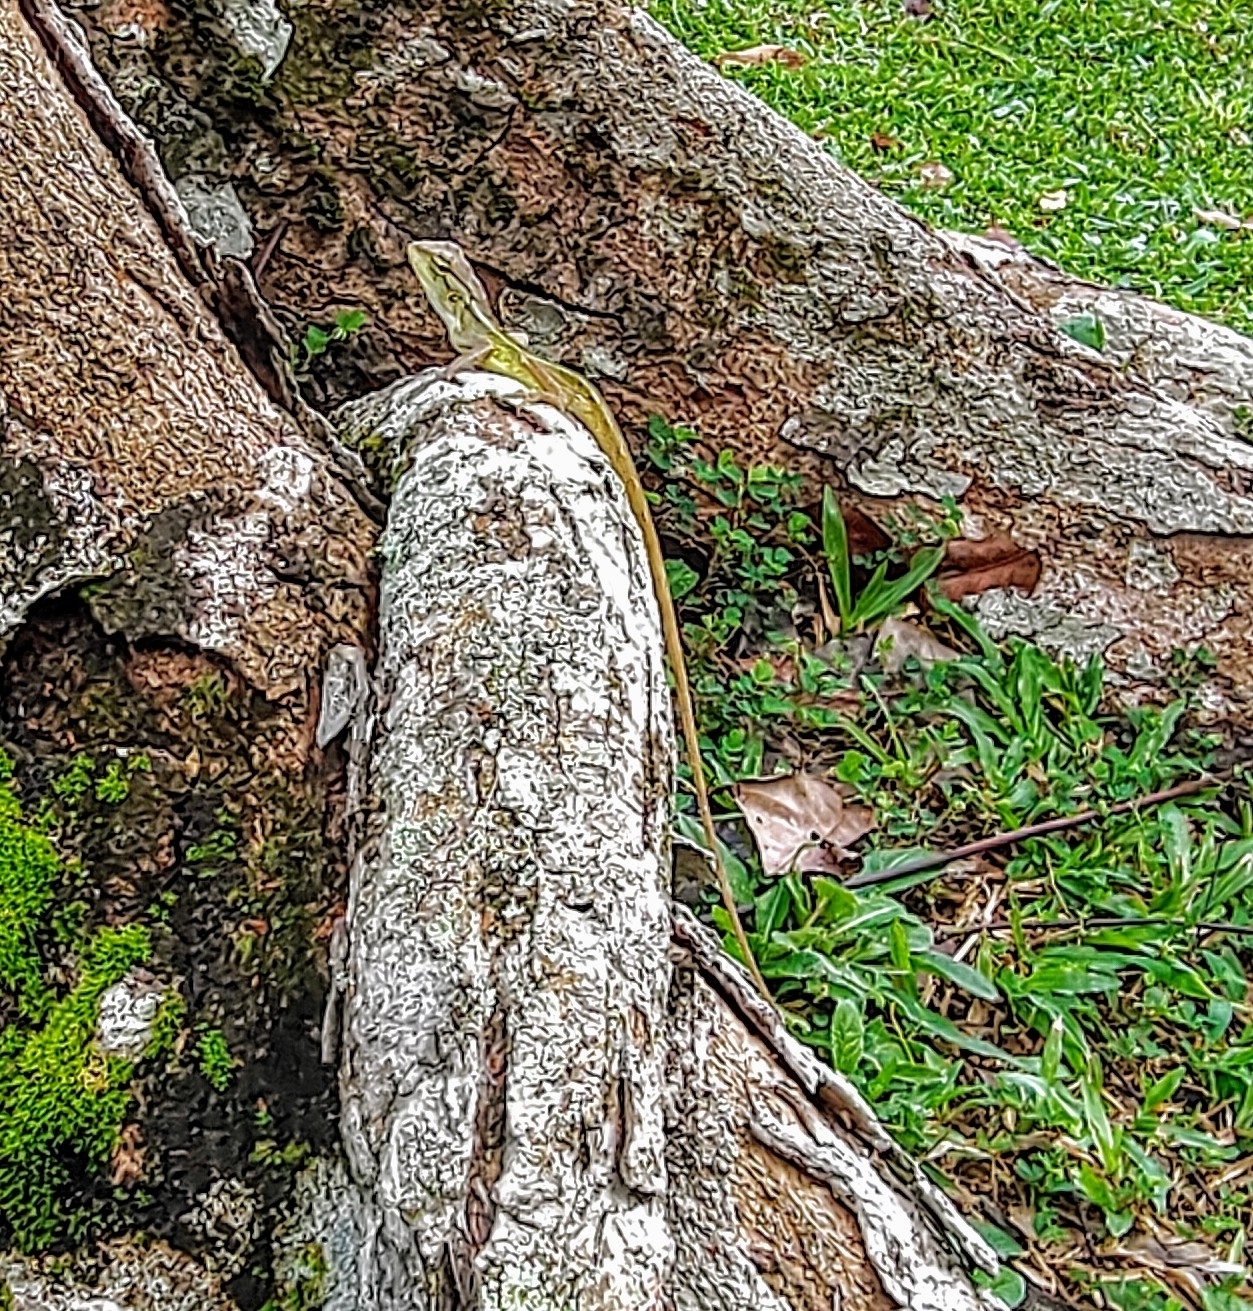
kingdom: Animalia
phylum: Chordata
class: Squamata
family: Agamidae
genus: Calotes
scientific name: Calotes versicolor
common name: Oriental garden lizard
